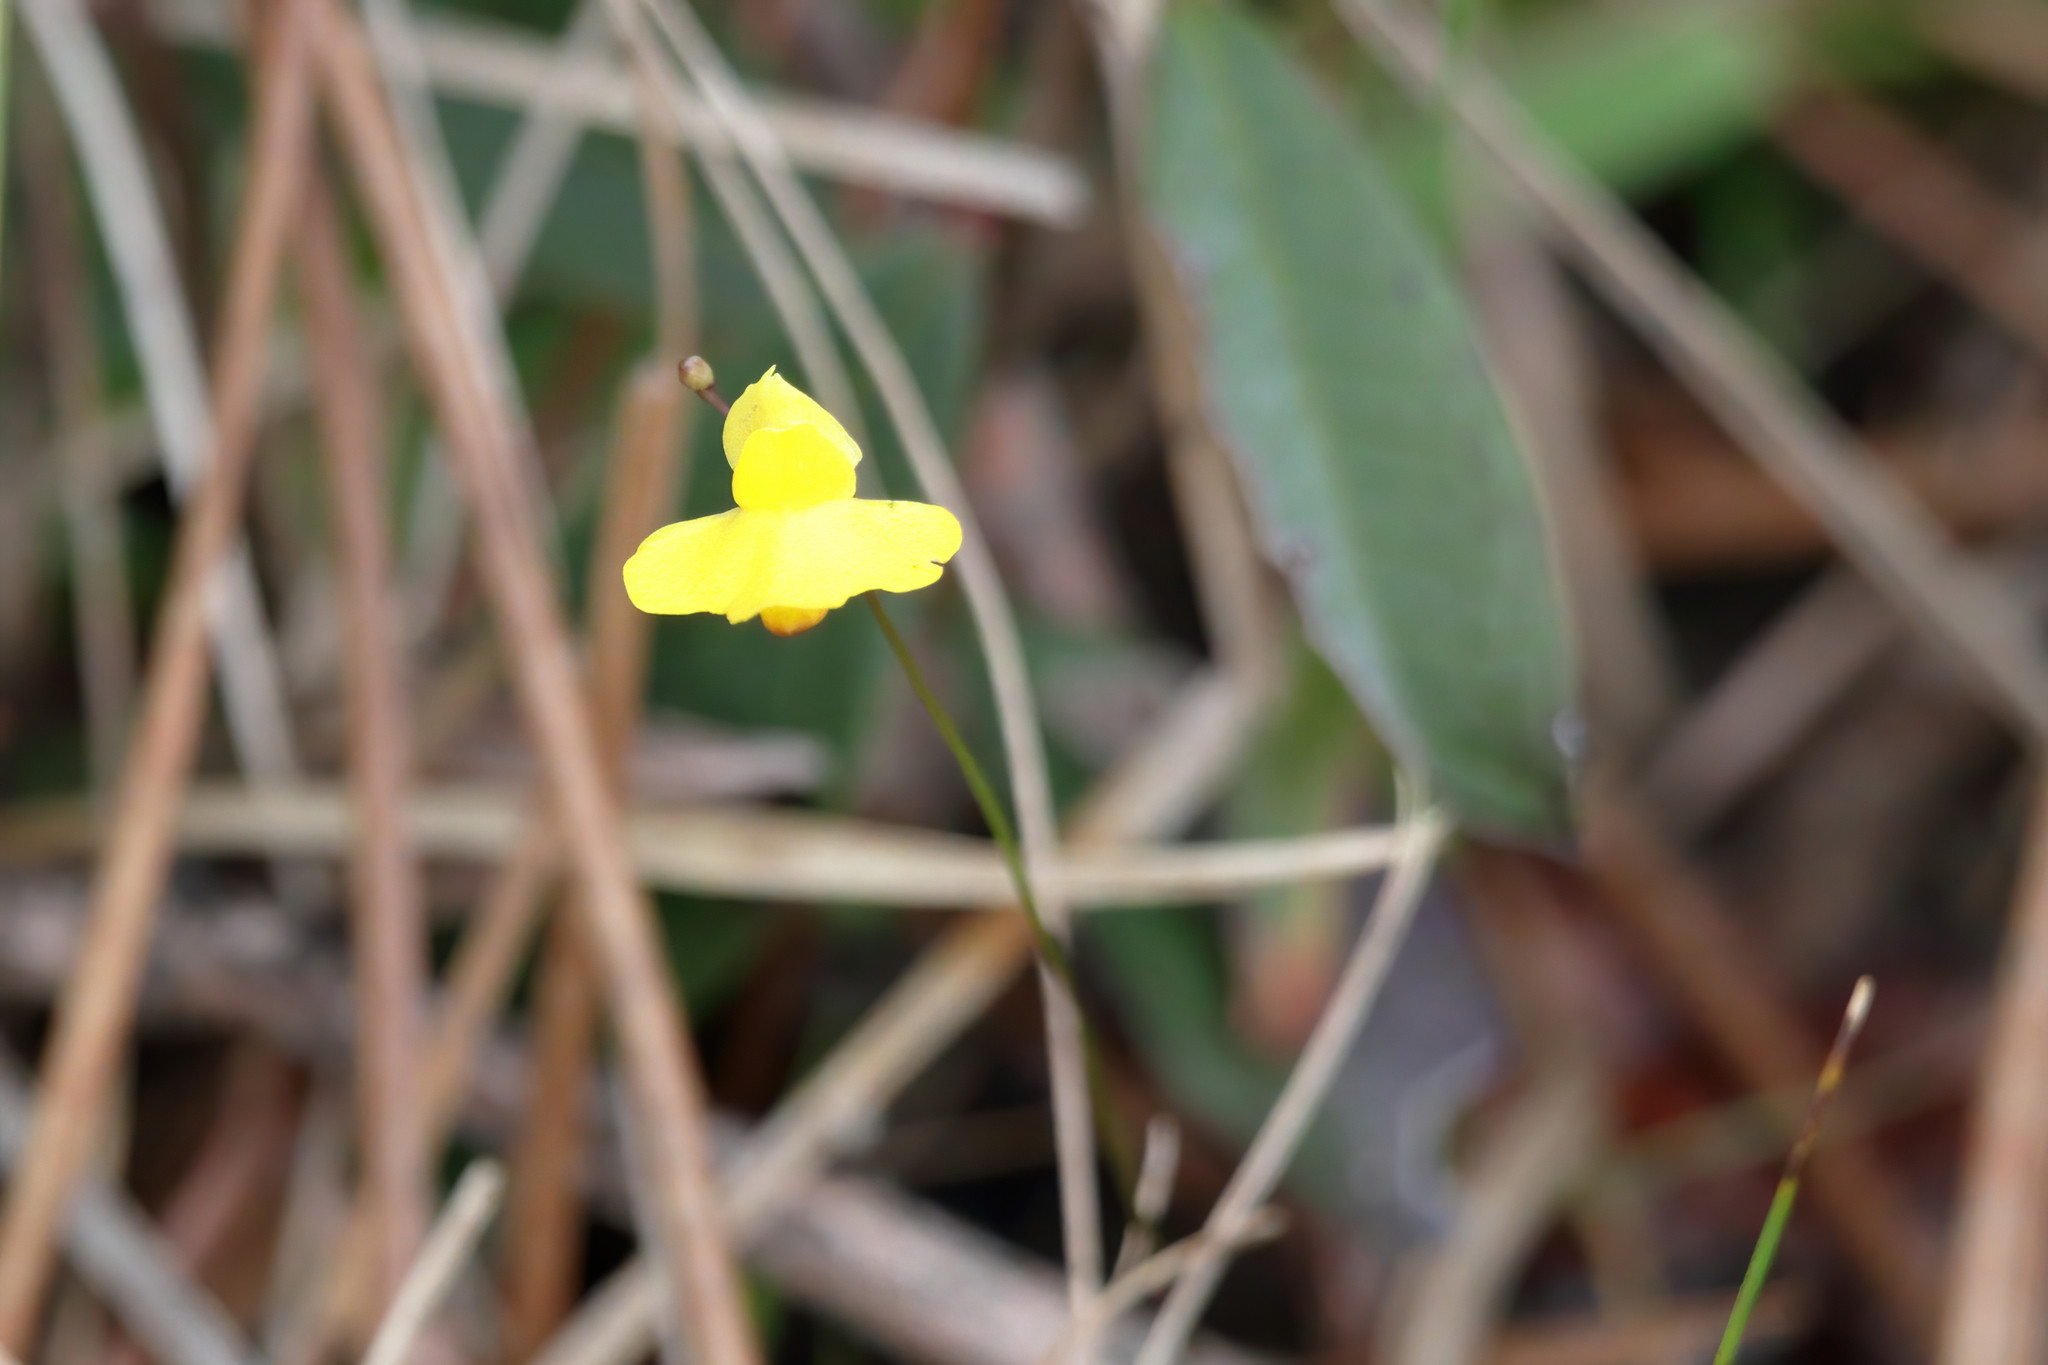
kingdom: Plantae
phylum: Tracheophyta
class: Magnoliopsida
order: Lamiales
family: Lentibulariaceae
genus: Utricularia
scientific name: Utricularia subulata
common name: Tiny bladderwort
